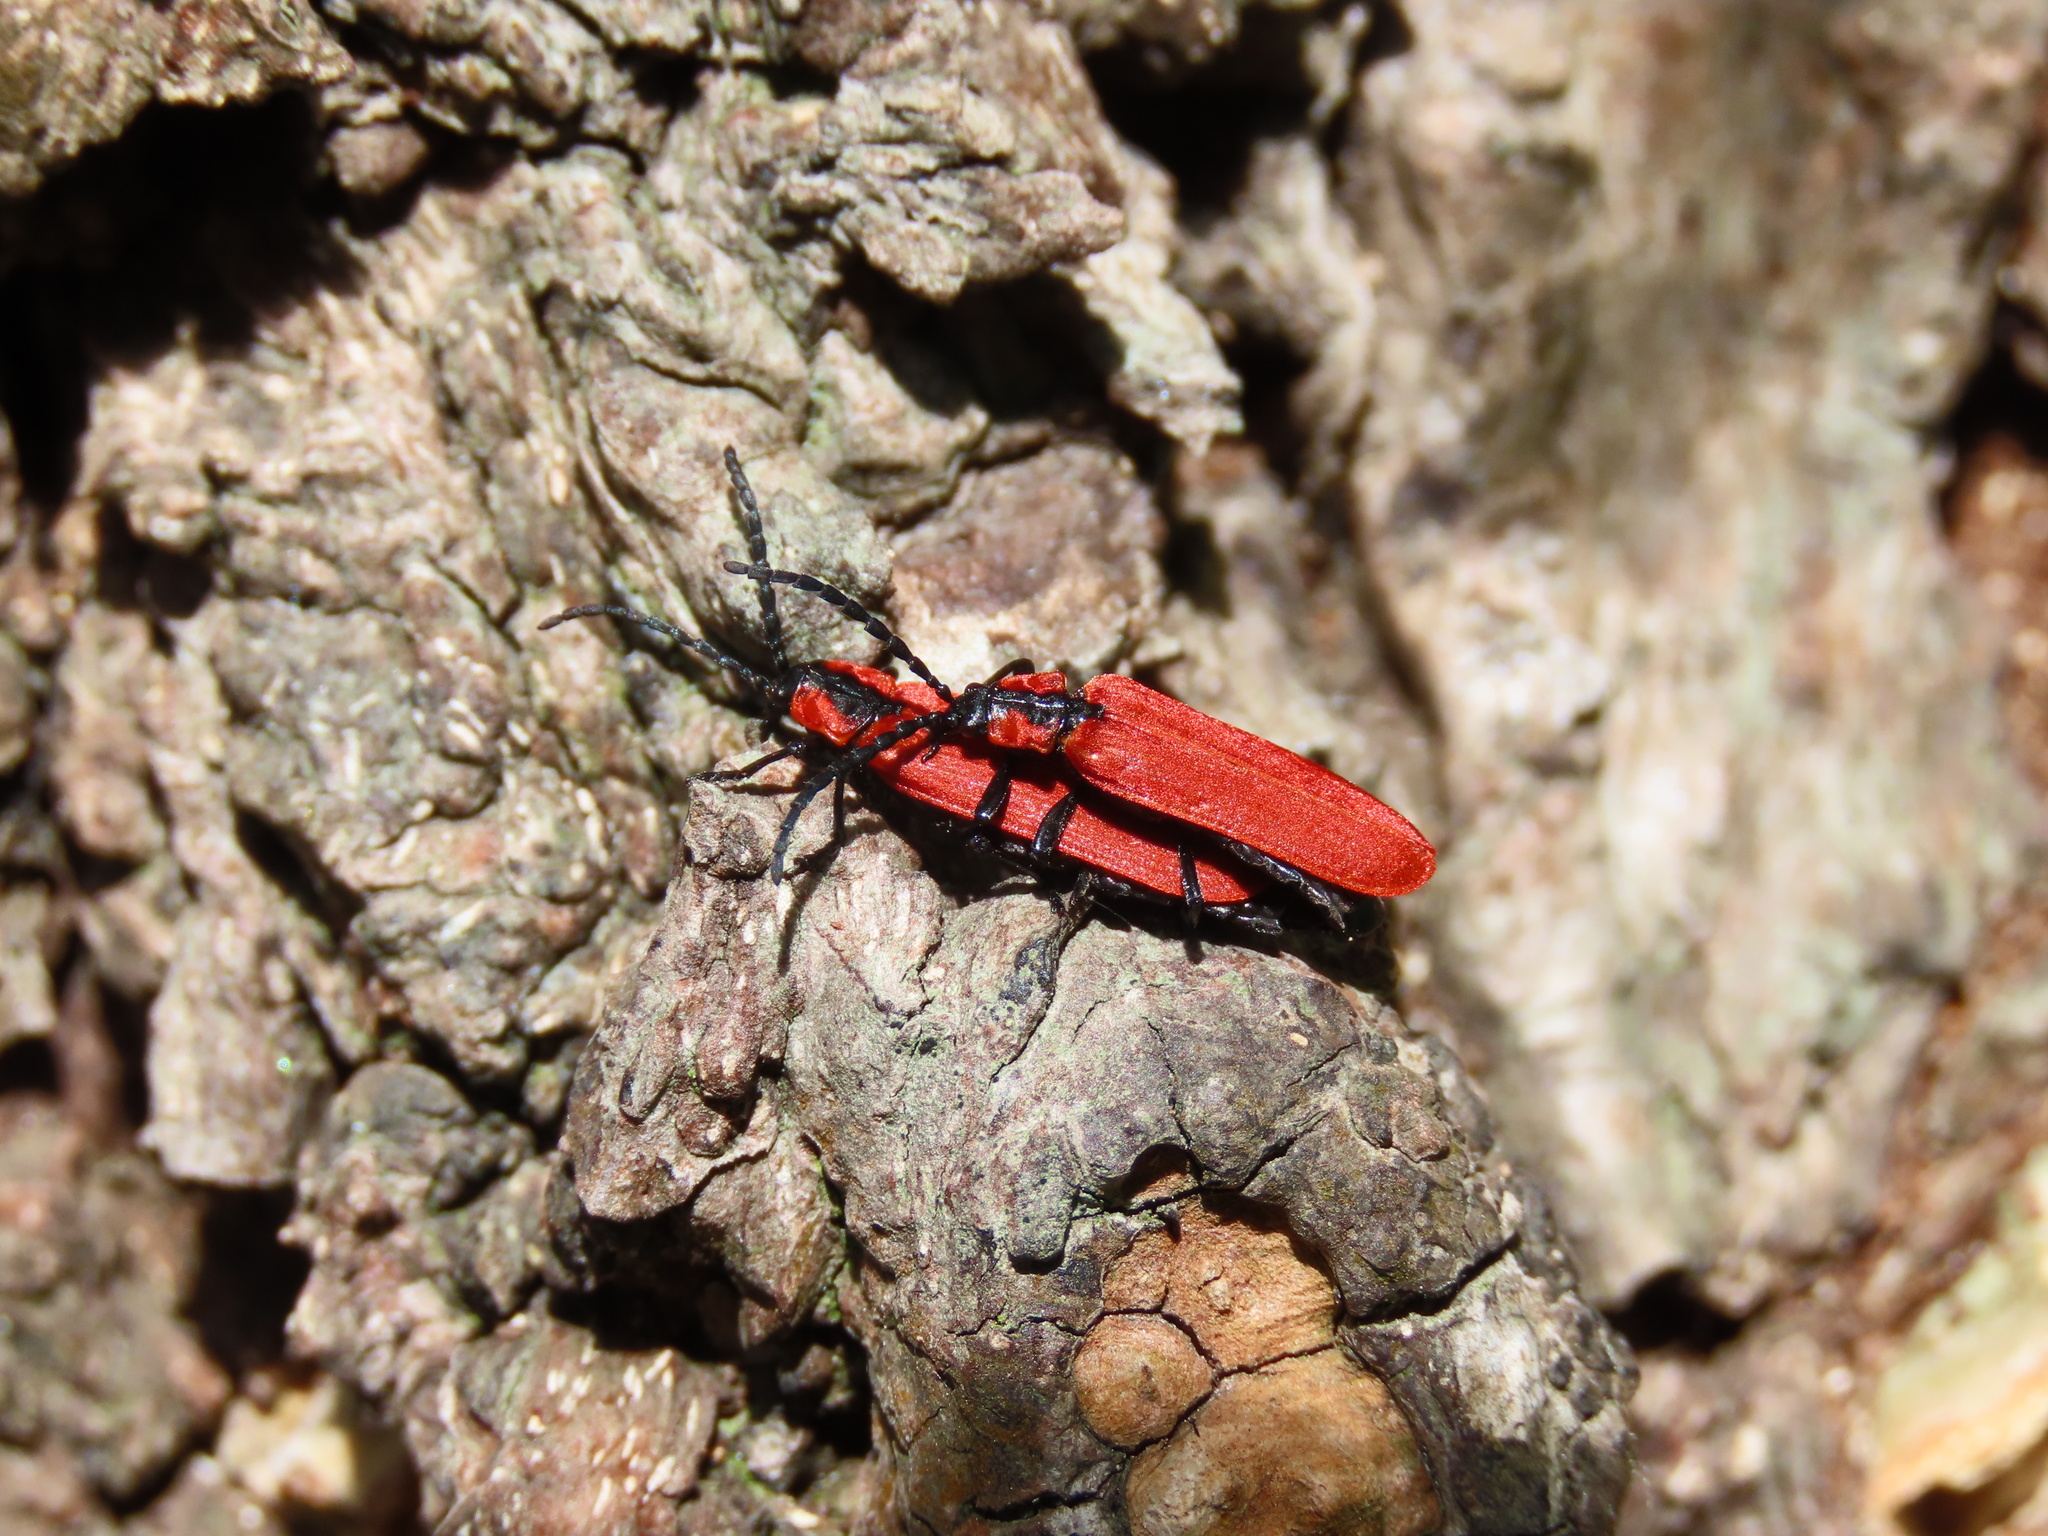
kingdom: Animalia
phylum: Arthropoda
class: Insecta
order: Coleoptera
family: Lycidae
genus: Lygistopterus
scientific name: Lygistopterus sanguineus
